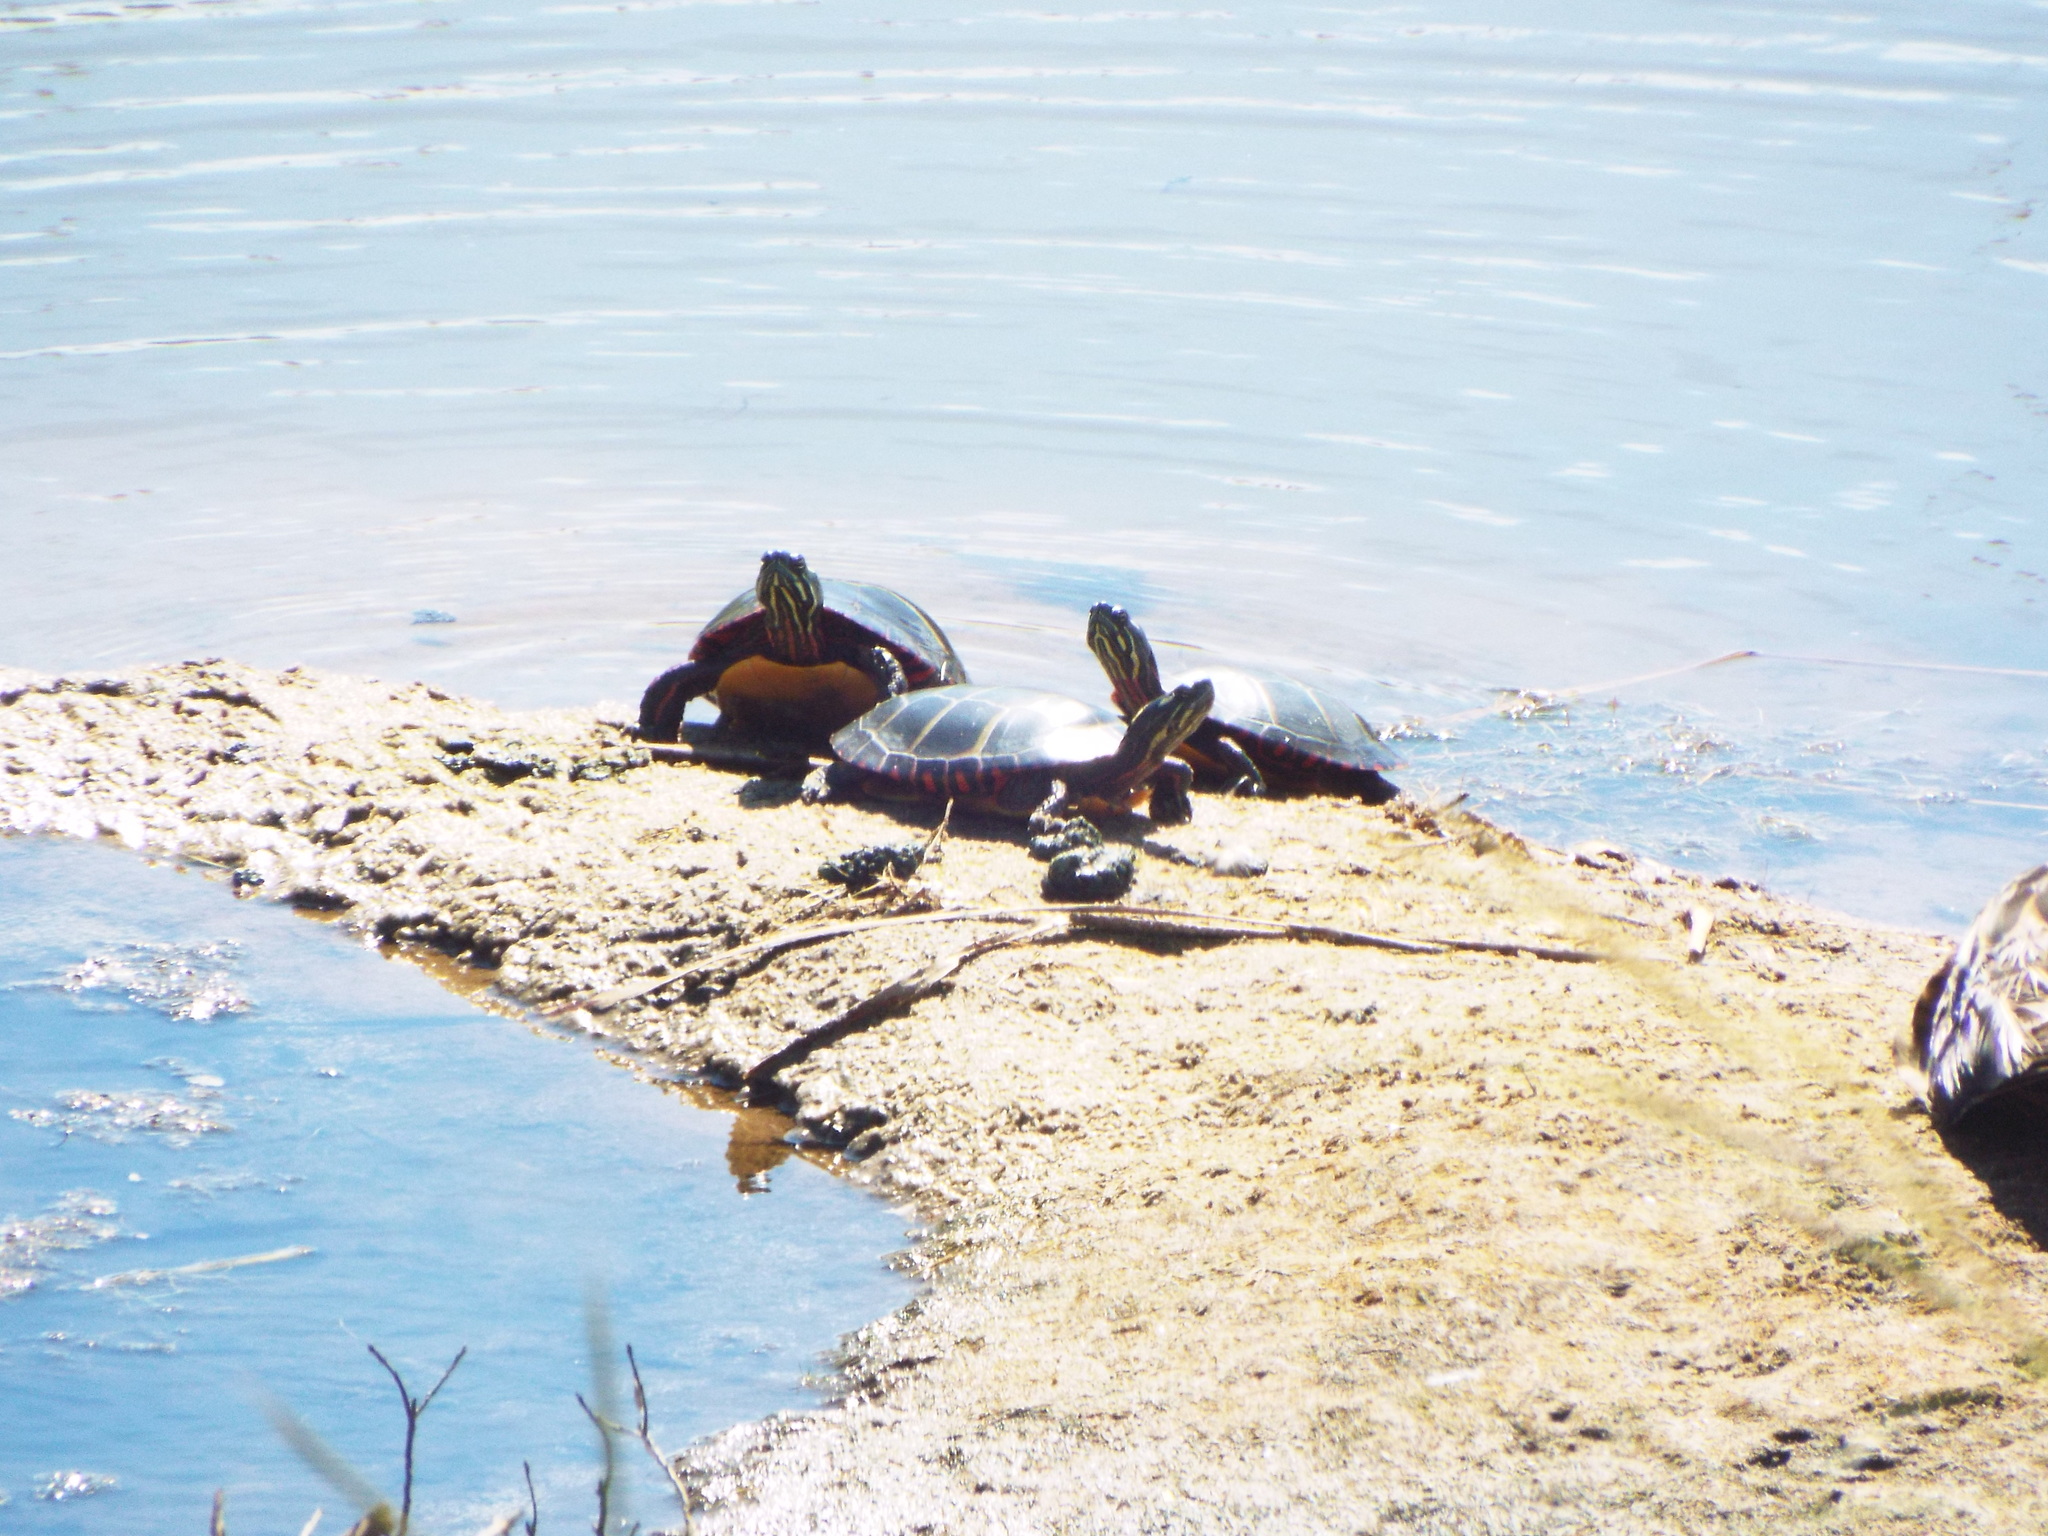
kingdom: Animalia
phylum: Chordata
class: Testudines
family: Emydidae
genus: Chrysemys
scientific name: Chrysemys picta
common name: Painted turtle
